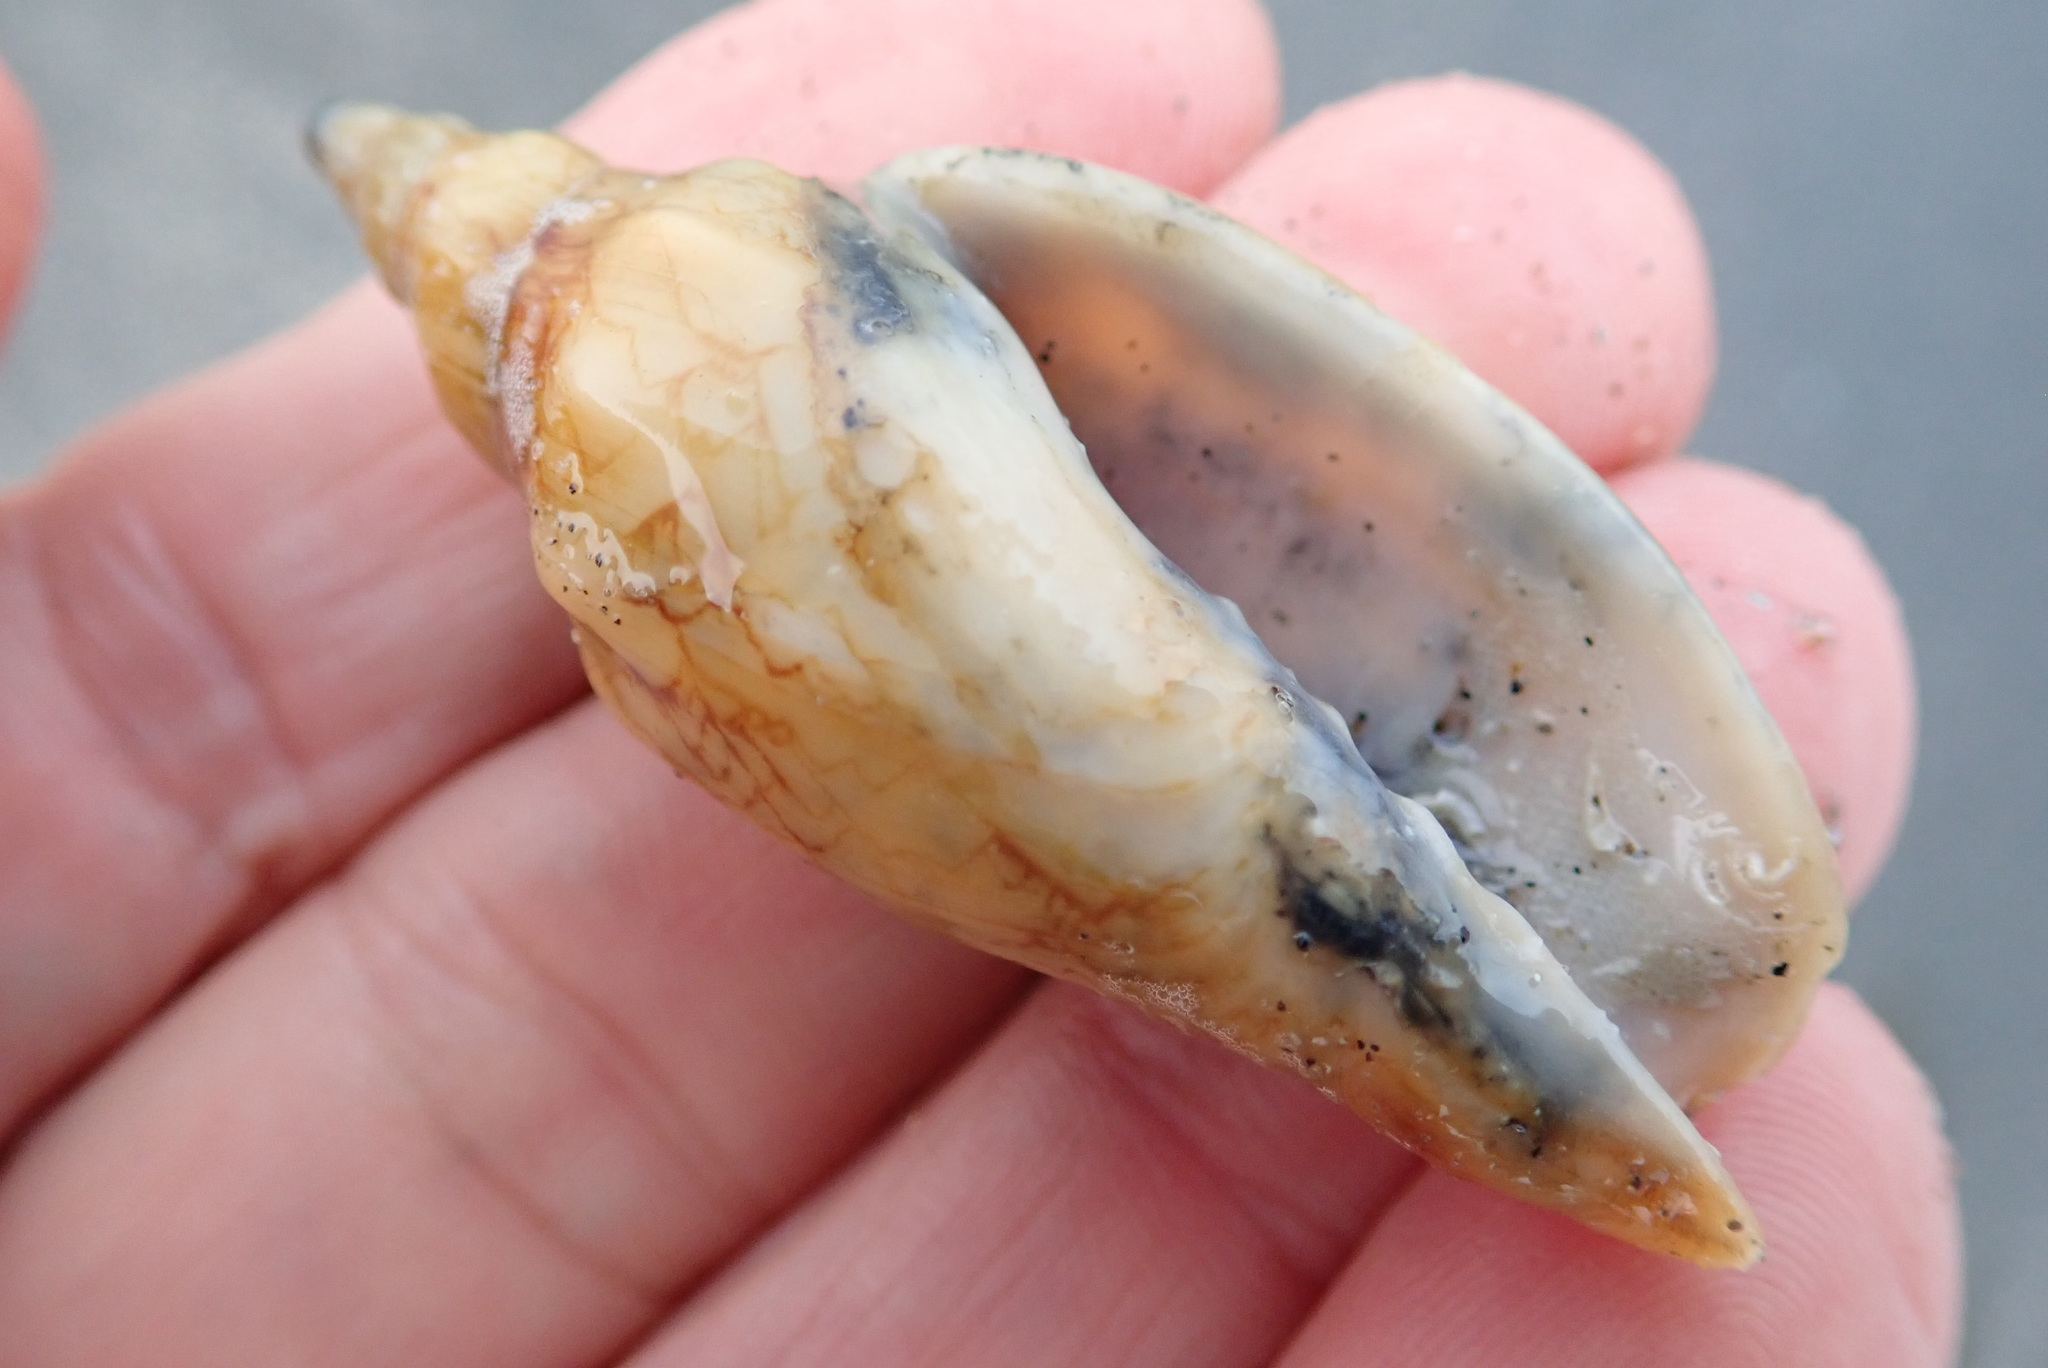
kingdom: Animalia
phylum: Mollusca
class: Gastropoda
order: Neogastropoda
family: Volutidae
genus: Alcithoe
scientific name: Alcithoe fusus
